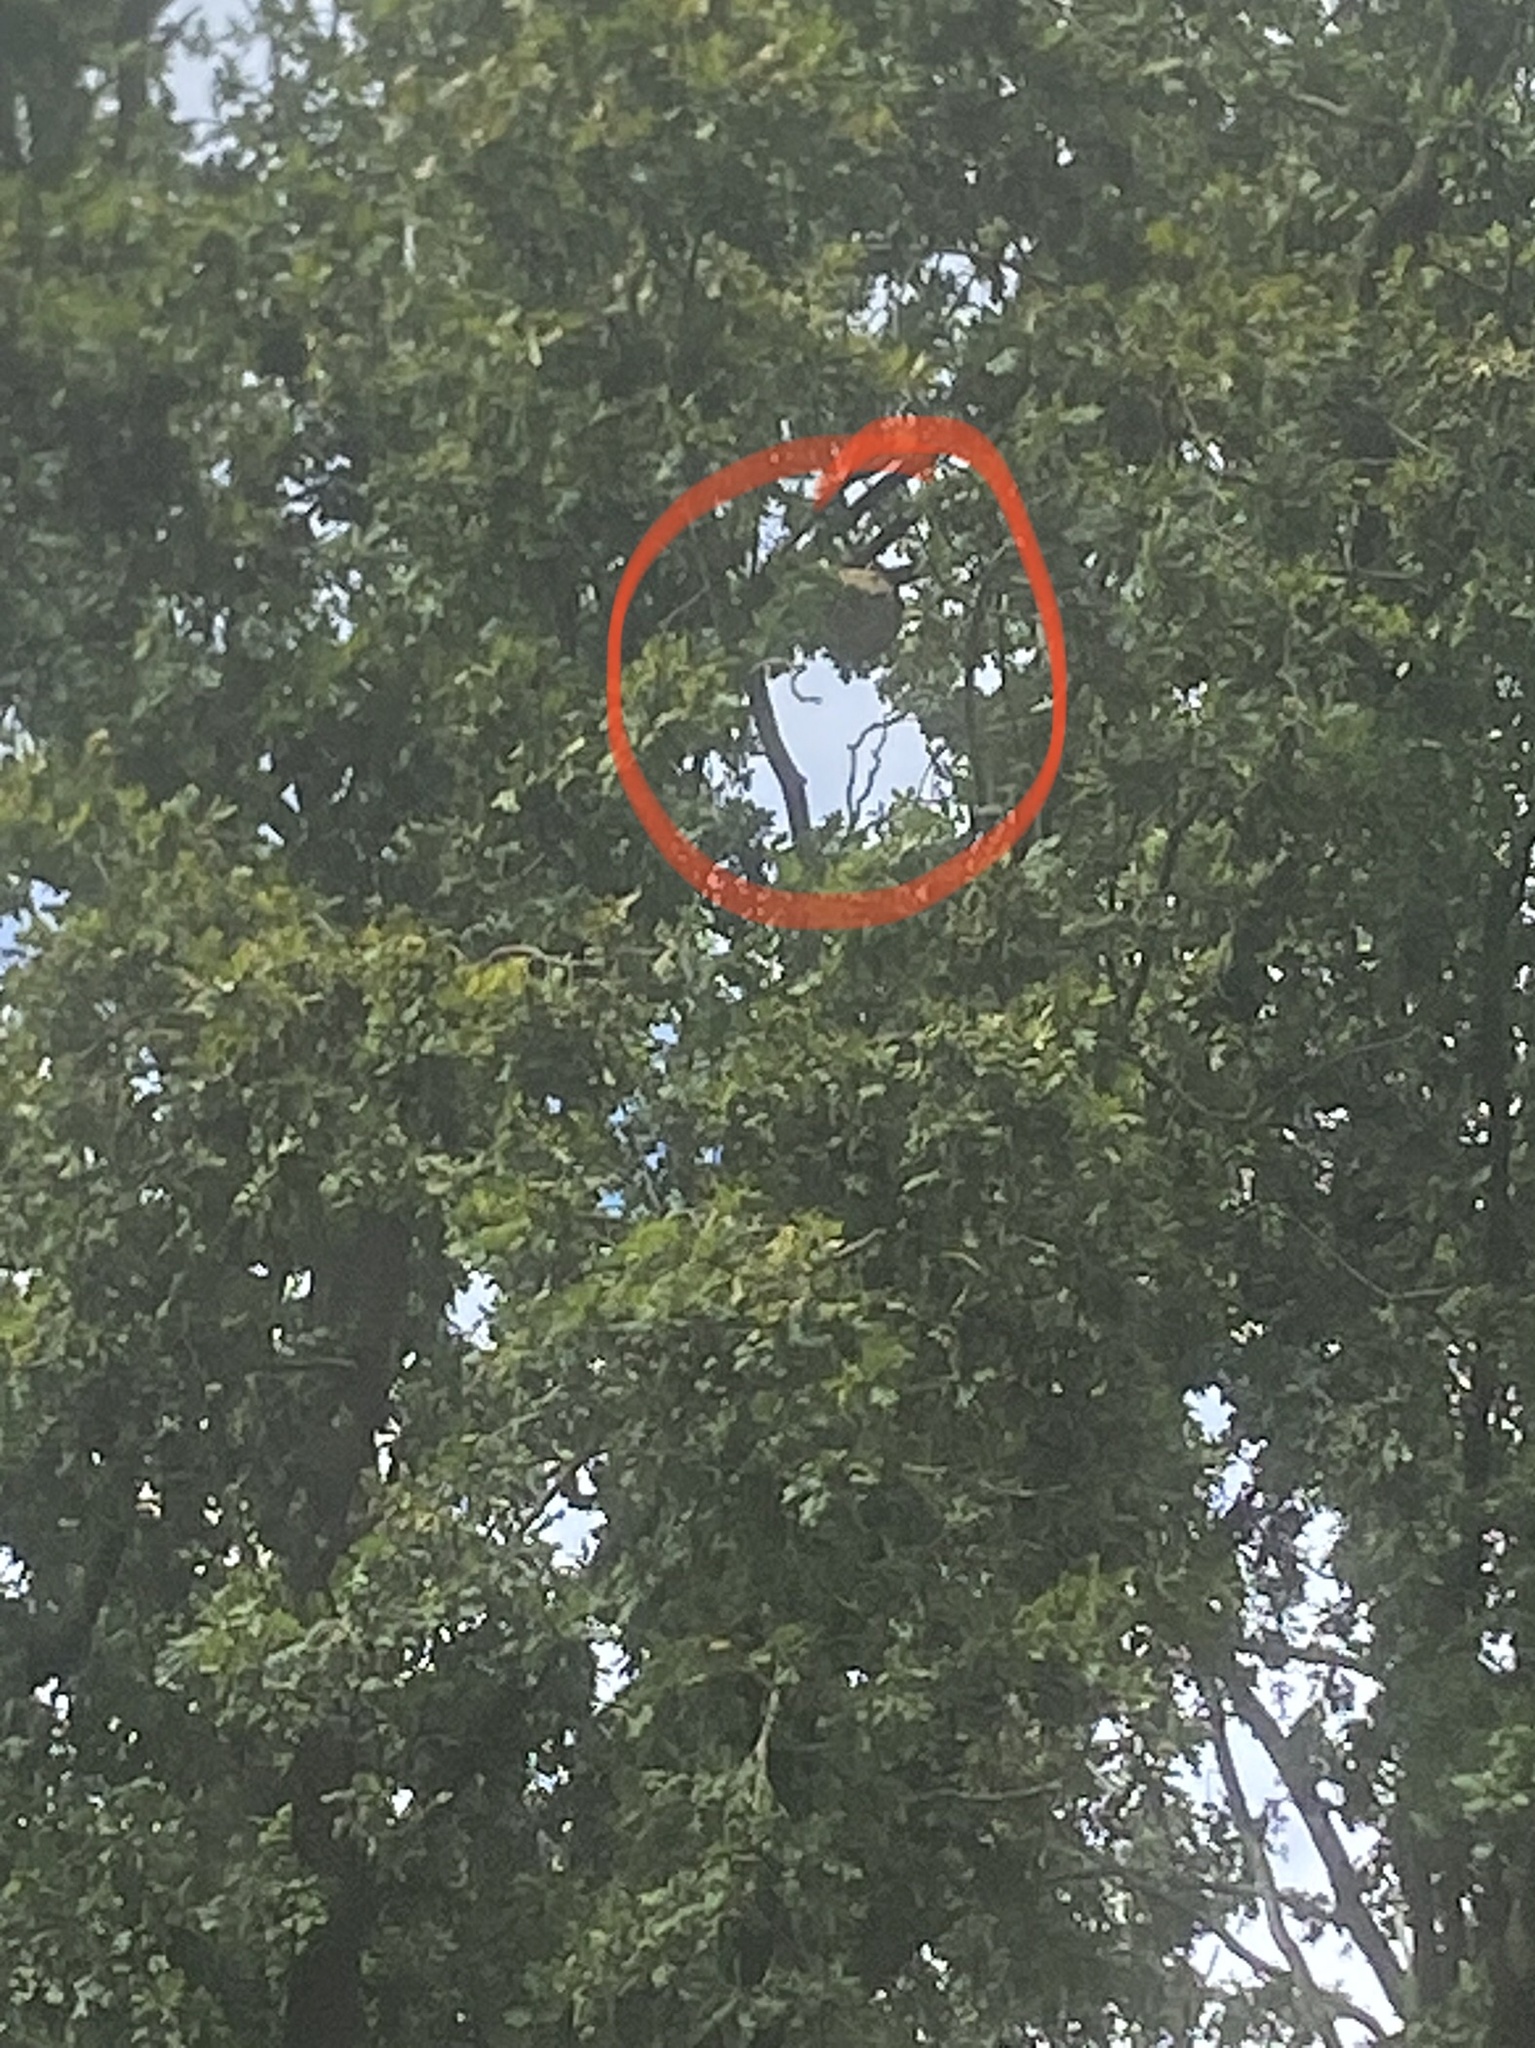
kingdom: Animalia
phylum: Arthropoda
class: Insecta
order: Hymenoptera
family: Vespidae
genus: Vespa
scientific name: Vespa velutina
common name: Asian hornet
